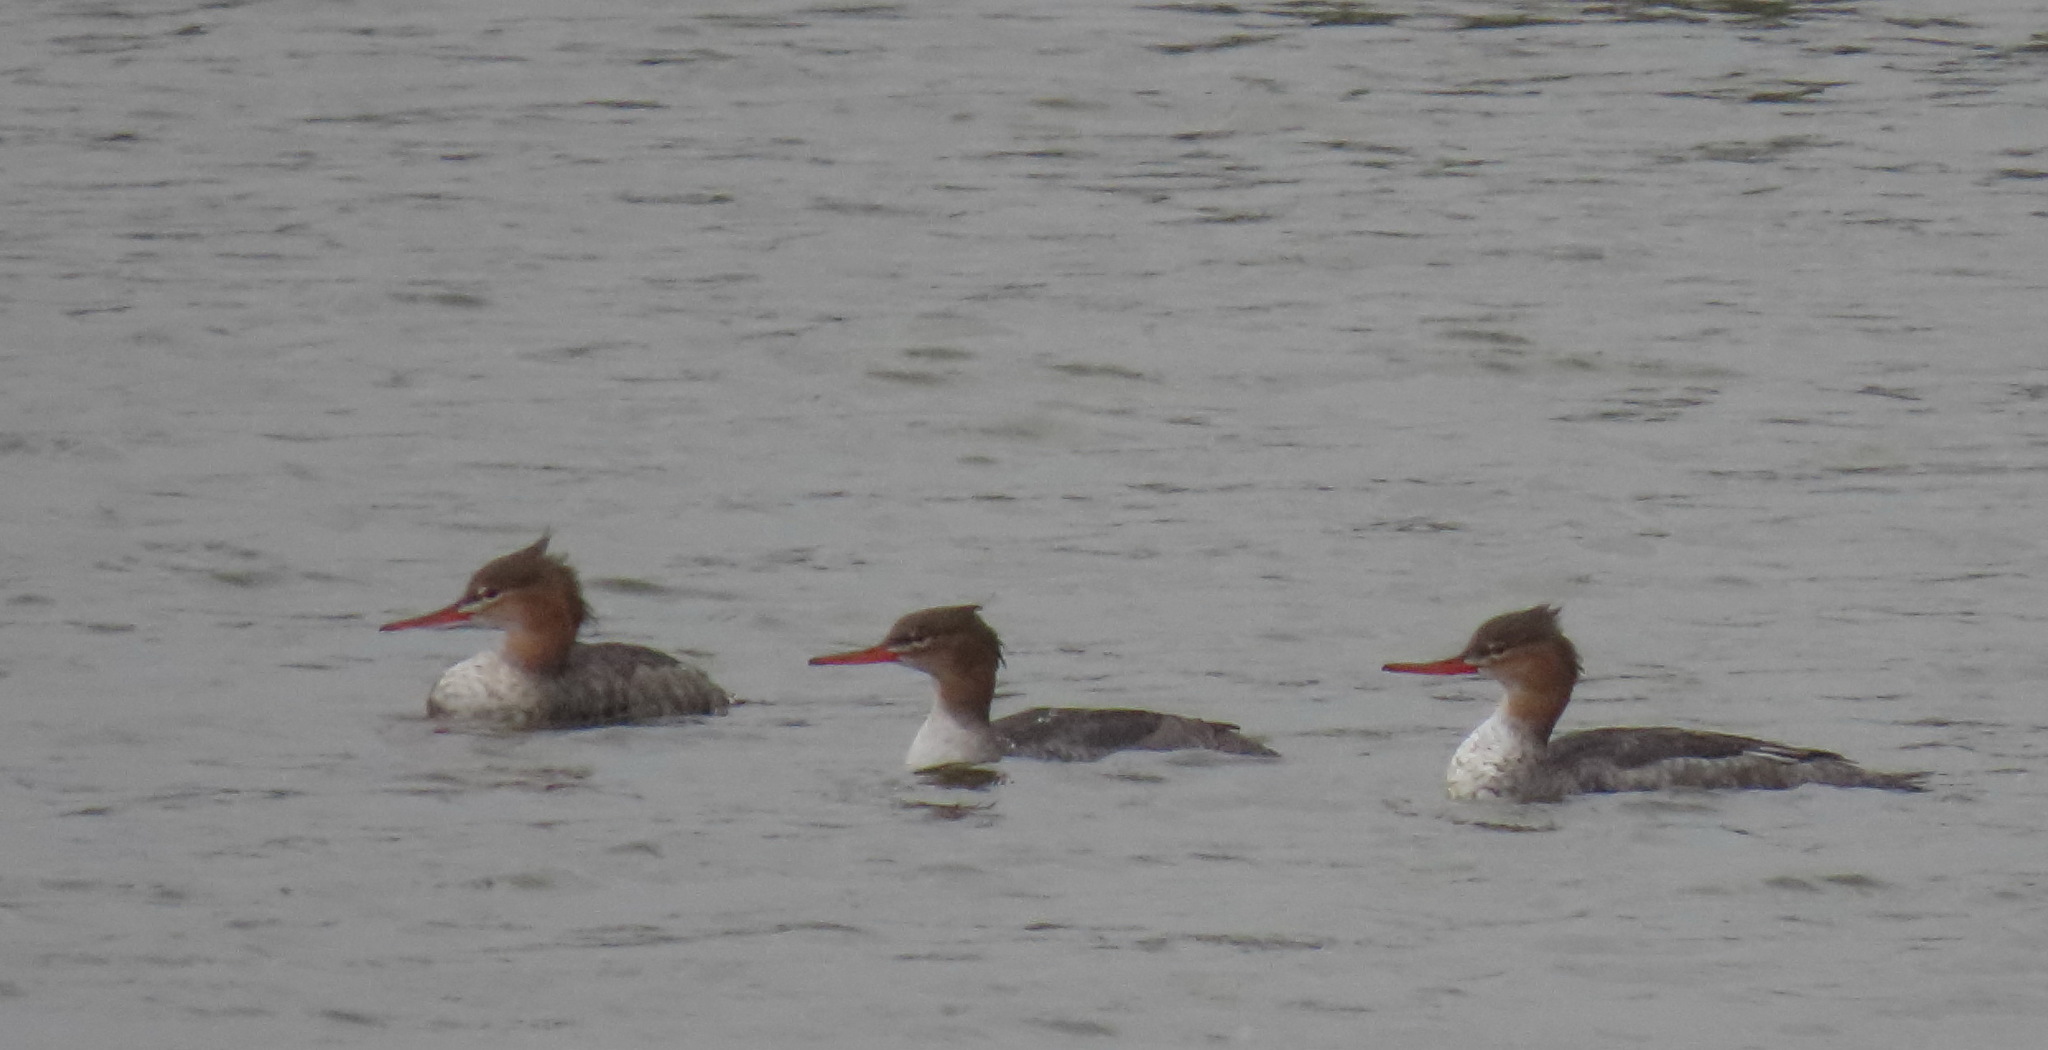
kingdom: Animalia
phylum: Chordata
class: Aves
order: Anseriformes
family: Anatidae
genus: Mergus
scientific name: Mergus serrator
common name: Red-breasted merganser
